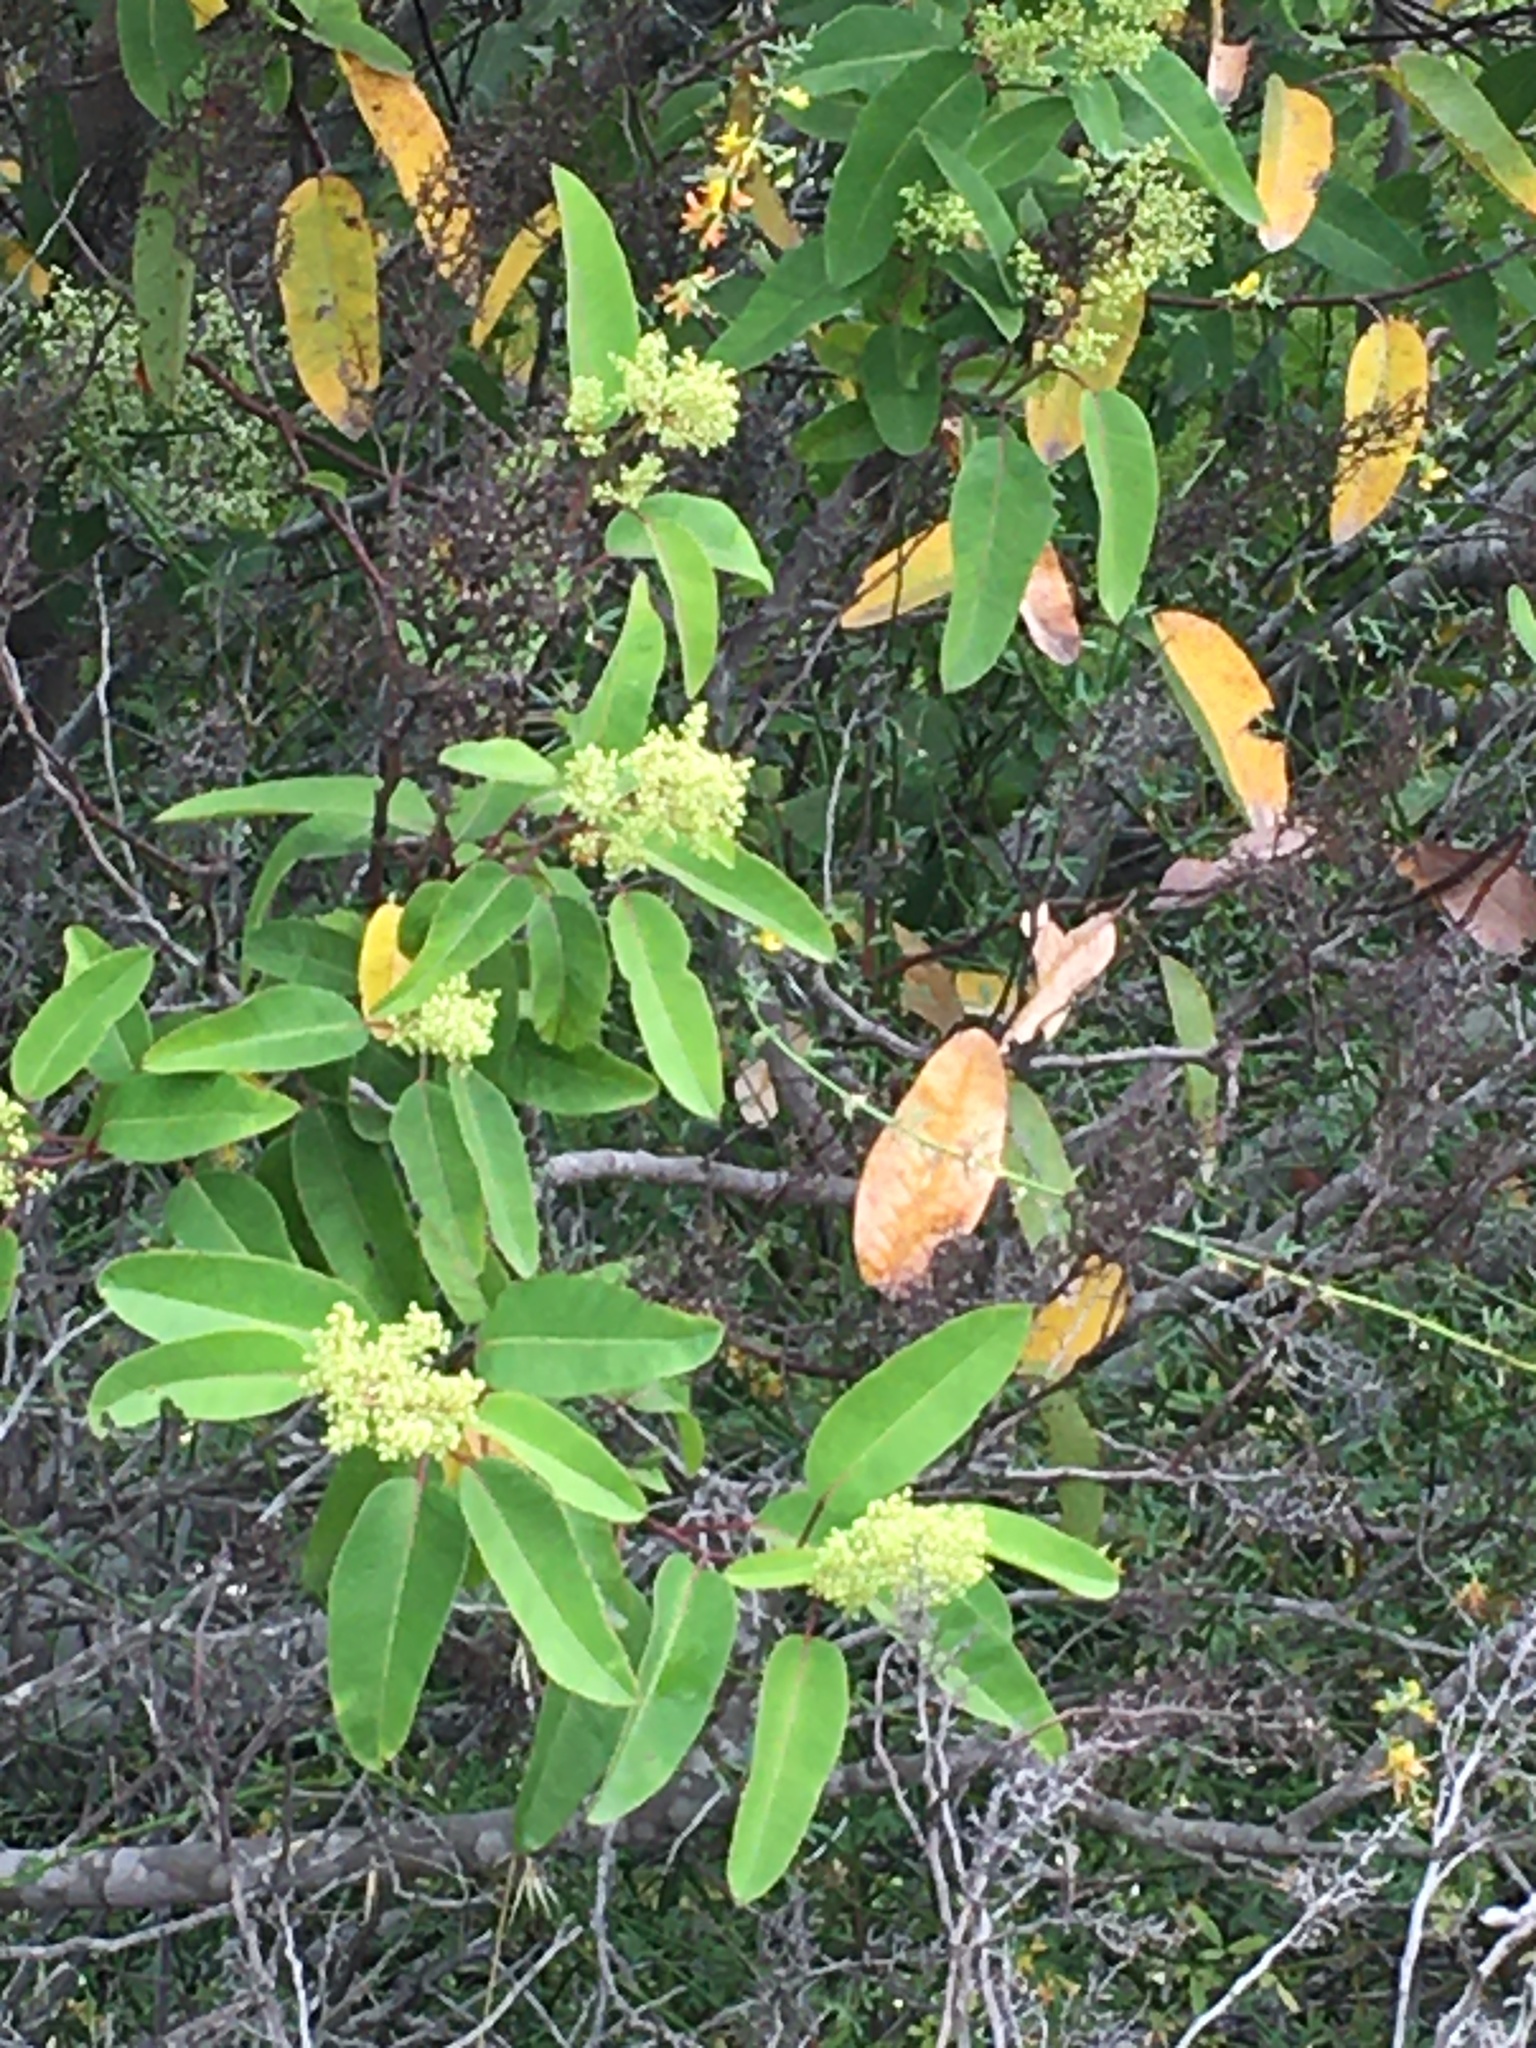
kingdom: Plantae
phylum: Tracheophyta
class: Magnoliopsida
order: Sapindales
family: Anacardiaceae
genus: Malosma
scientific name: Malosma laurina
